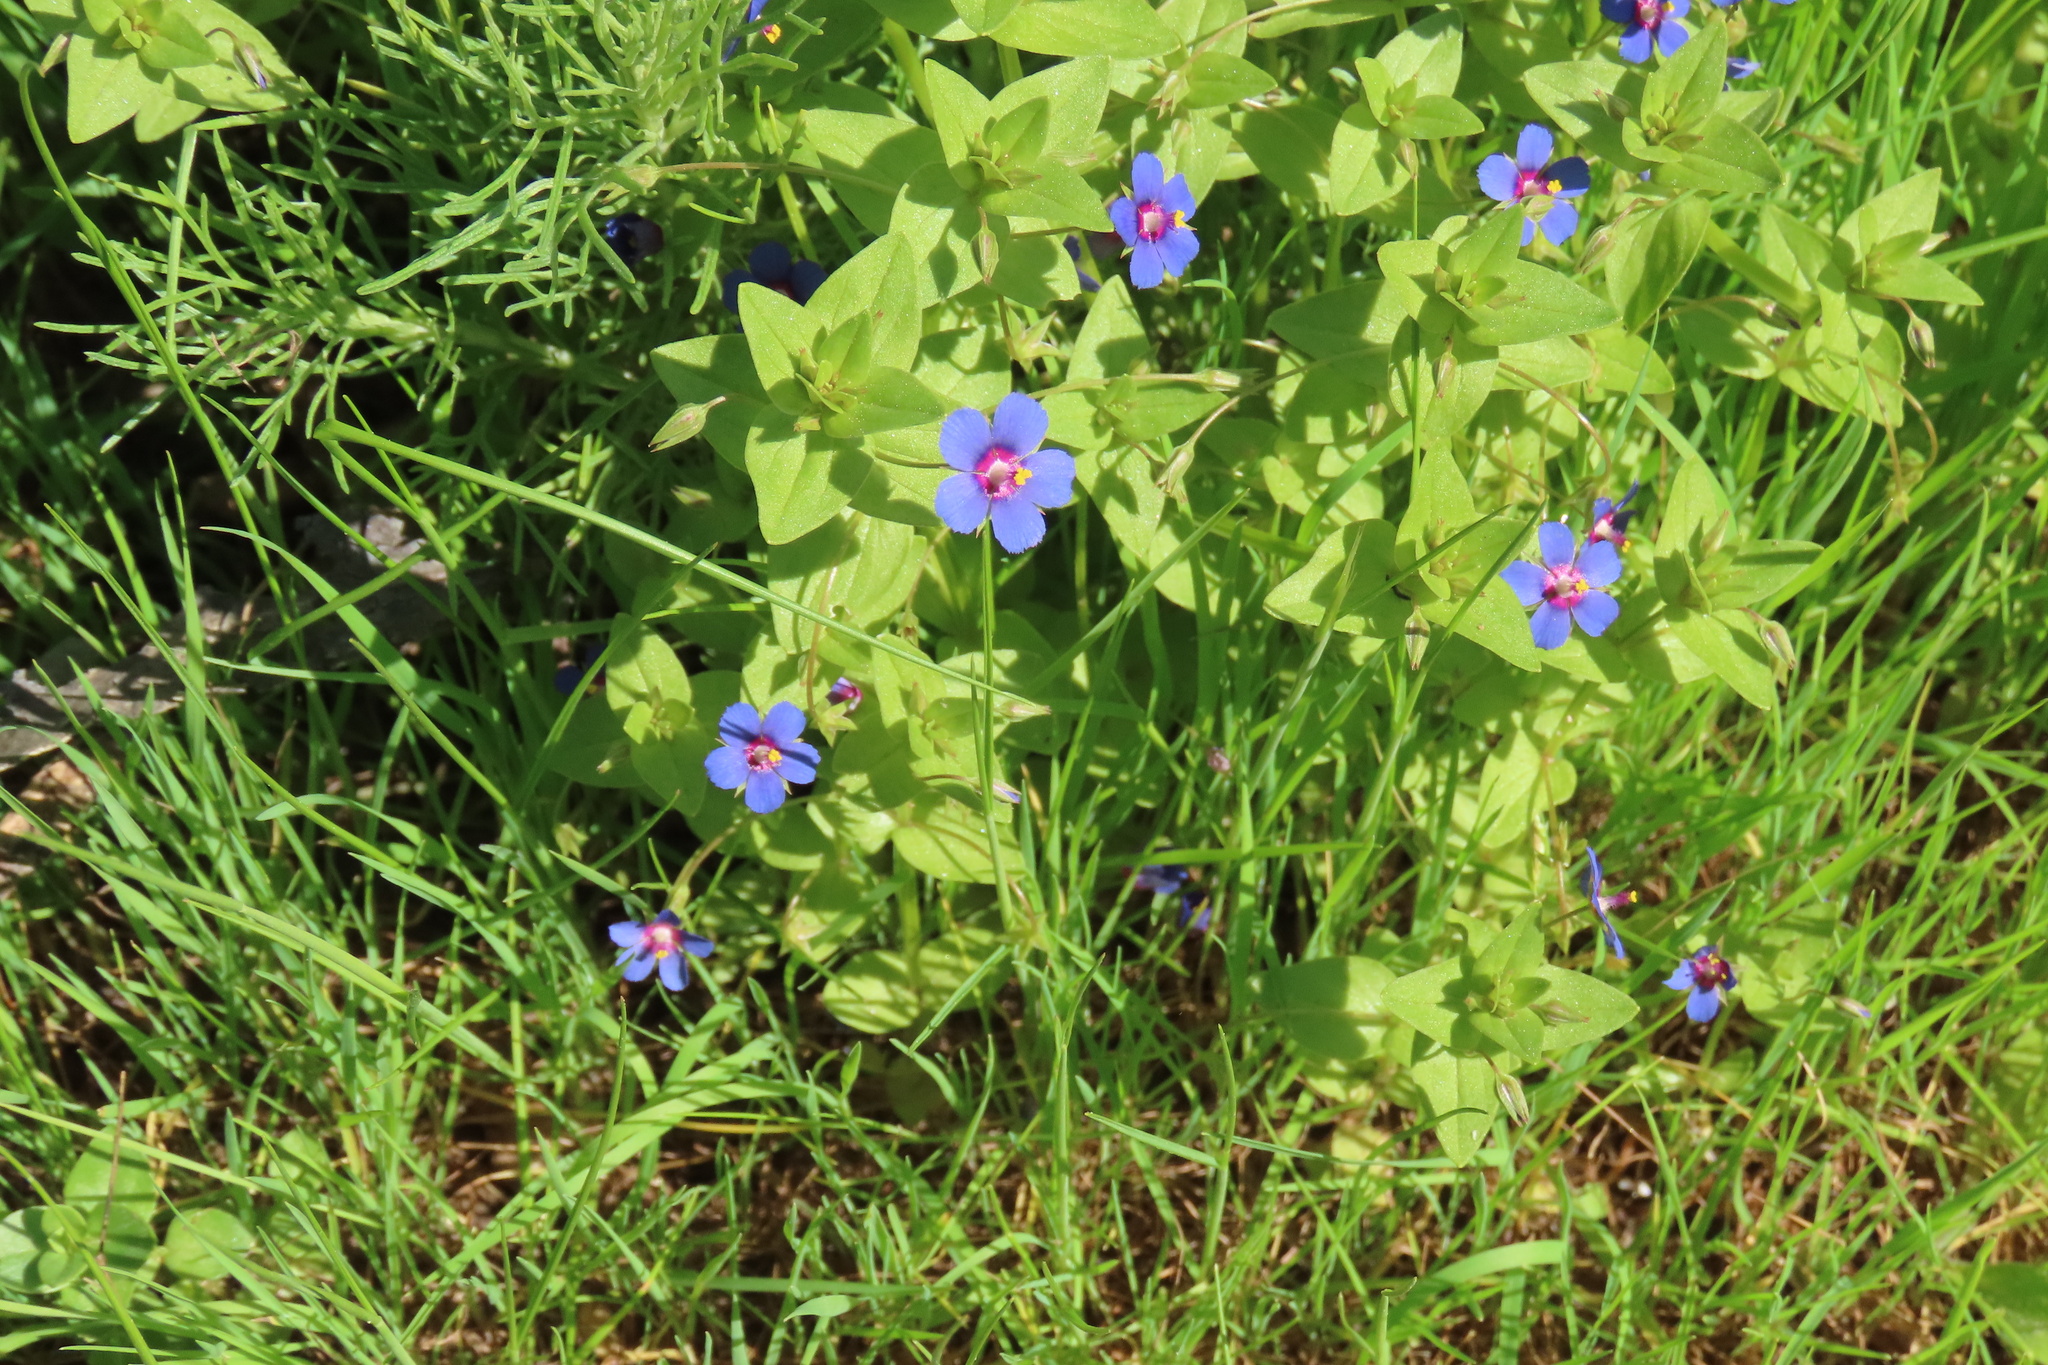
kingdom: Plantae
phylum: Tracheophyta
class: Magnoliopsida
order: Ericales
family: Primulaceae
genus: Lysimachia
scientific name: Lysimachia loeflingii
